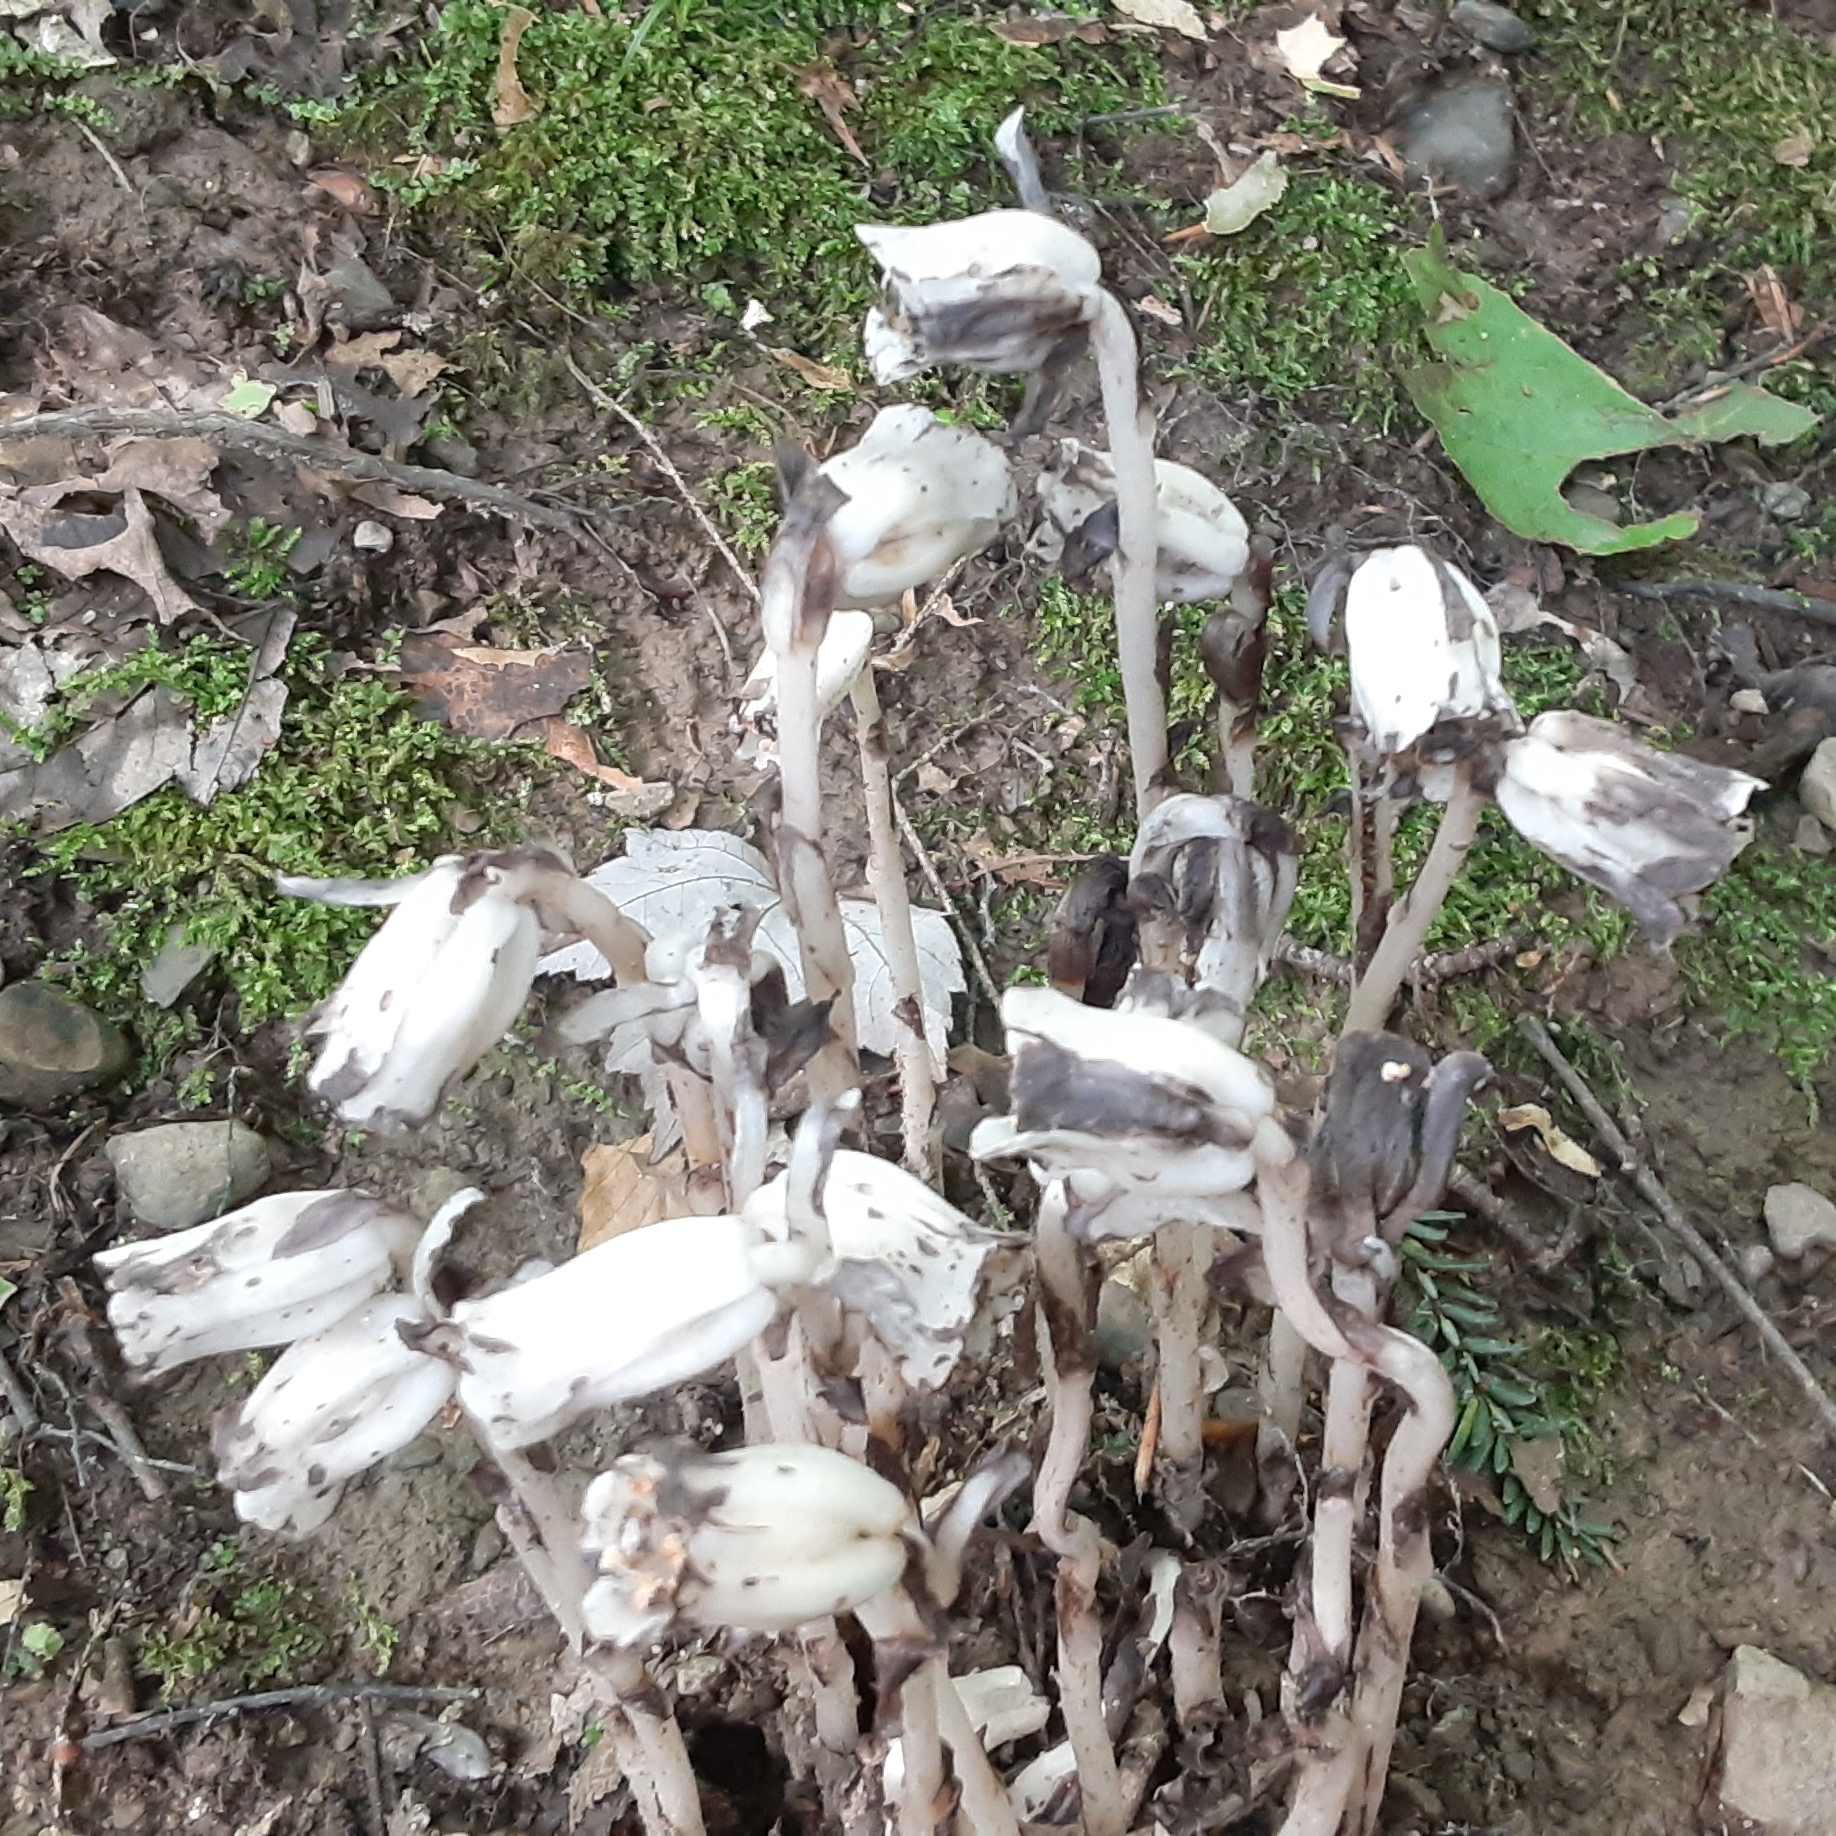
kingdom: Plantae
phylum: Tracheophyta
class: Magnoliopsida
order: Ericales
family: Ericaceae
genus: Monotropa
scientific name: Monotropa uniflora
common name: Convulsion root
